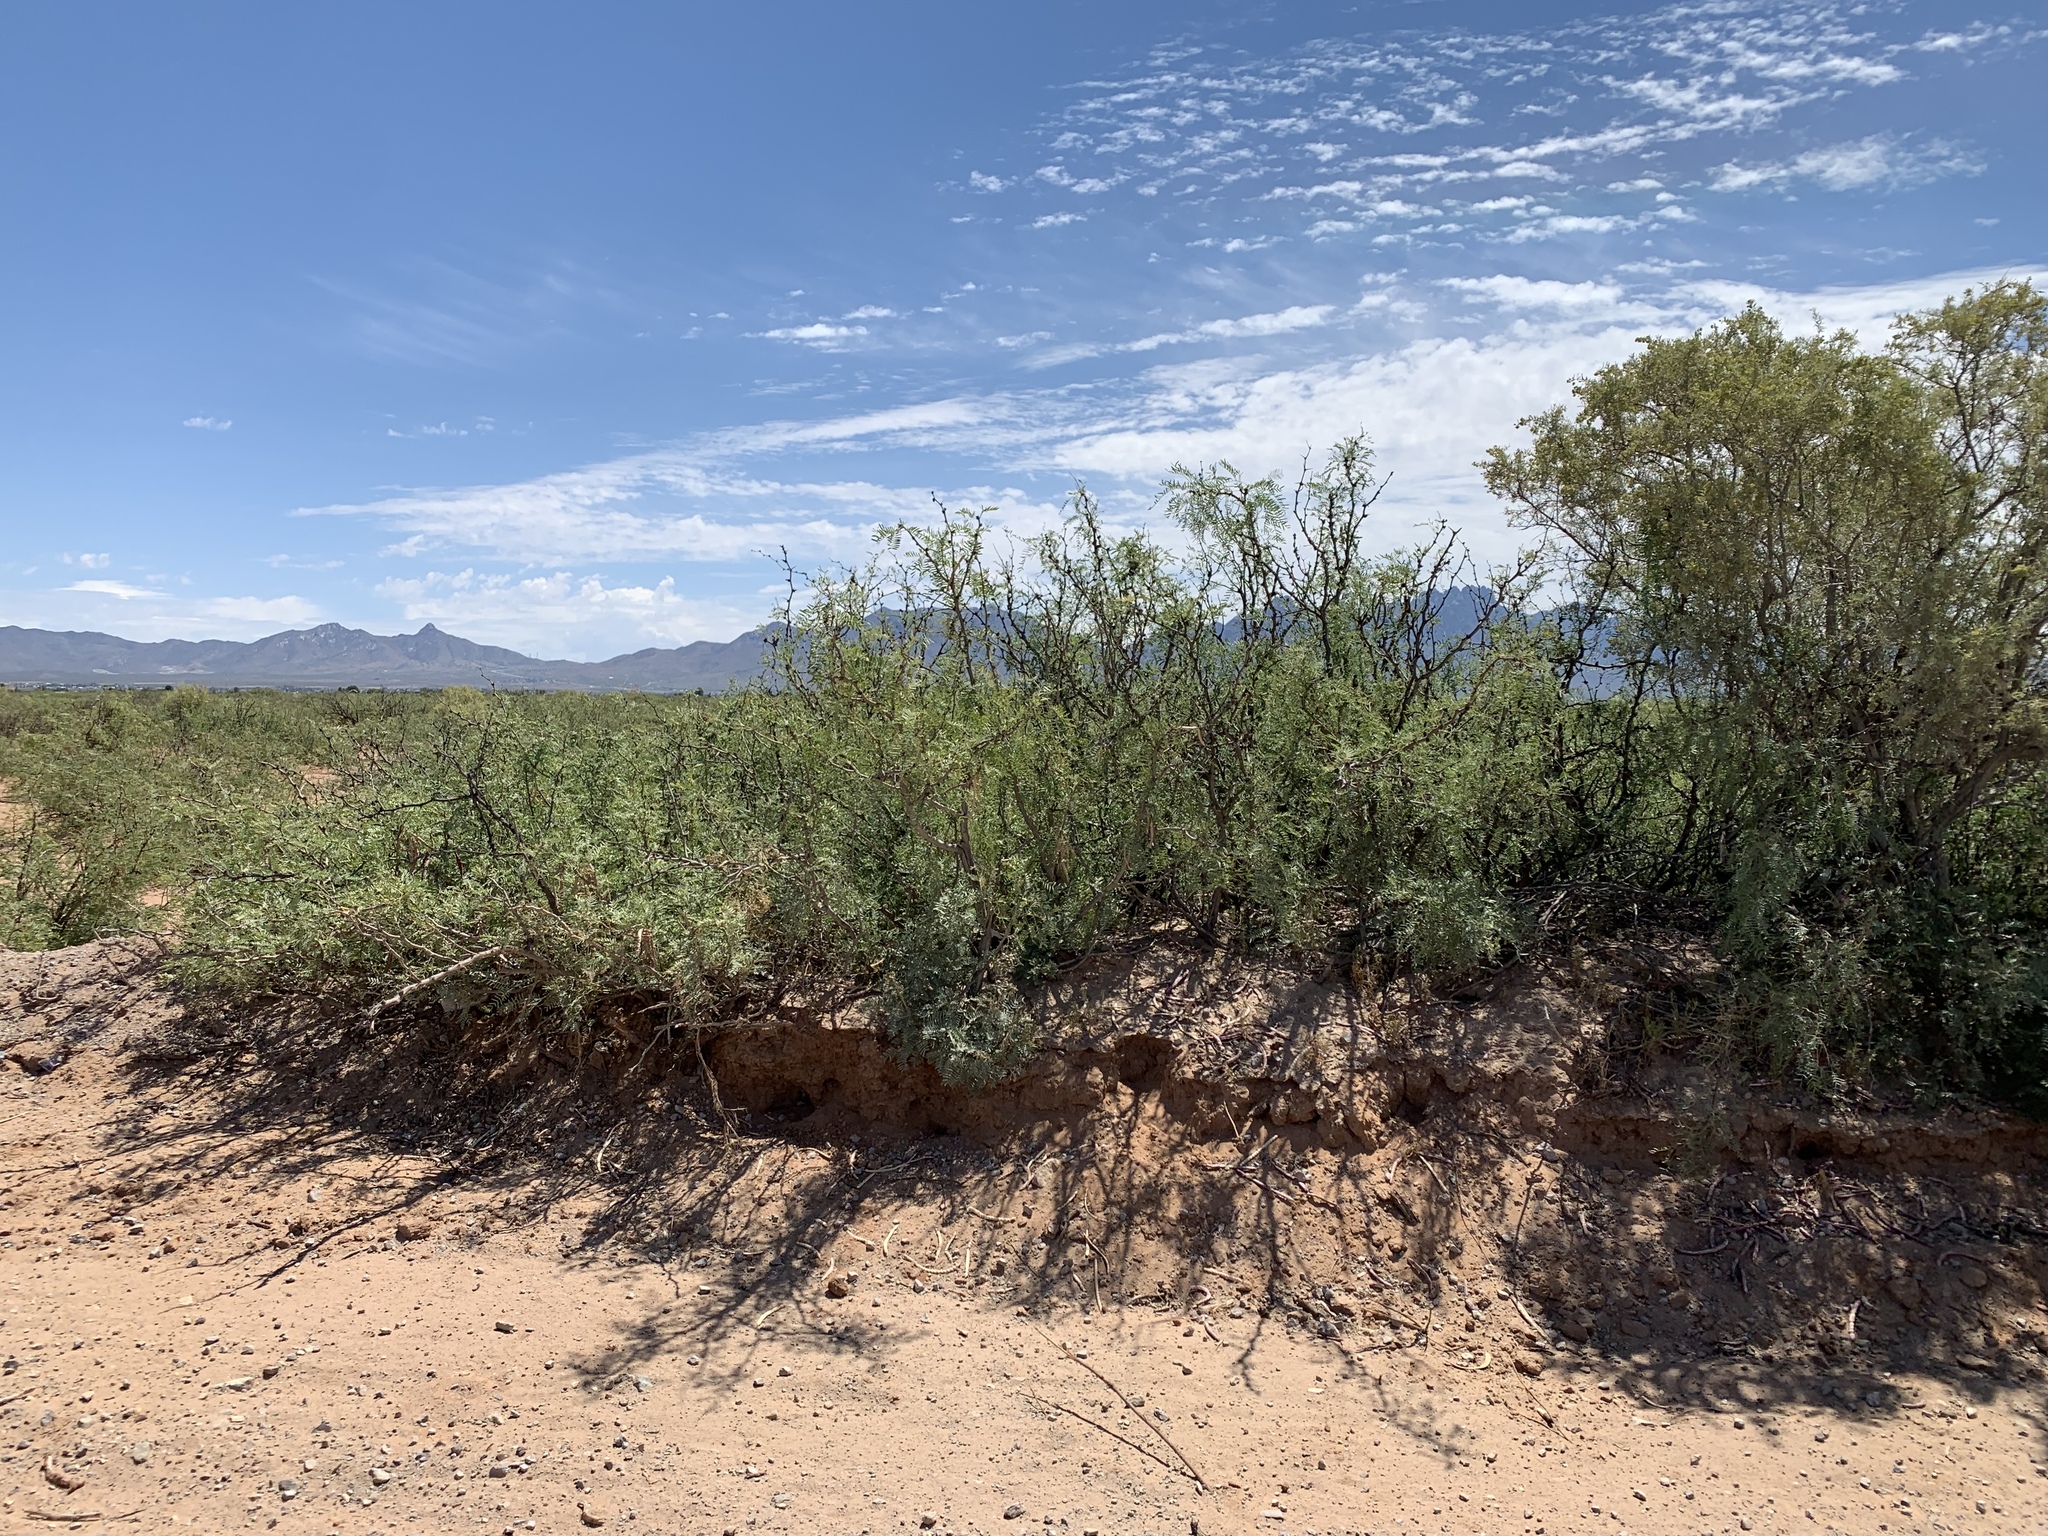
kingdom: Plantae
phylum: Tracheophyta
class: Magnoliopsida
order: Fabales
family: Fabaceae
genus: Prosopis
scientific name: Prosopis glandulosa
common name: Honey mesquite
